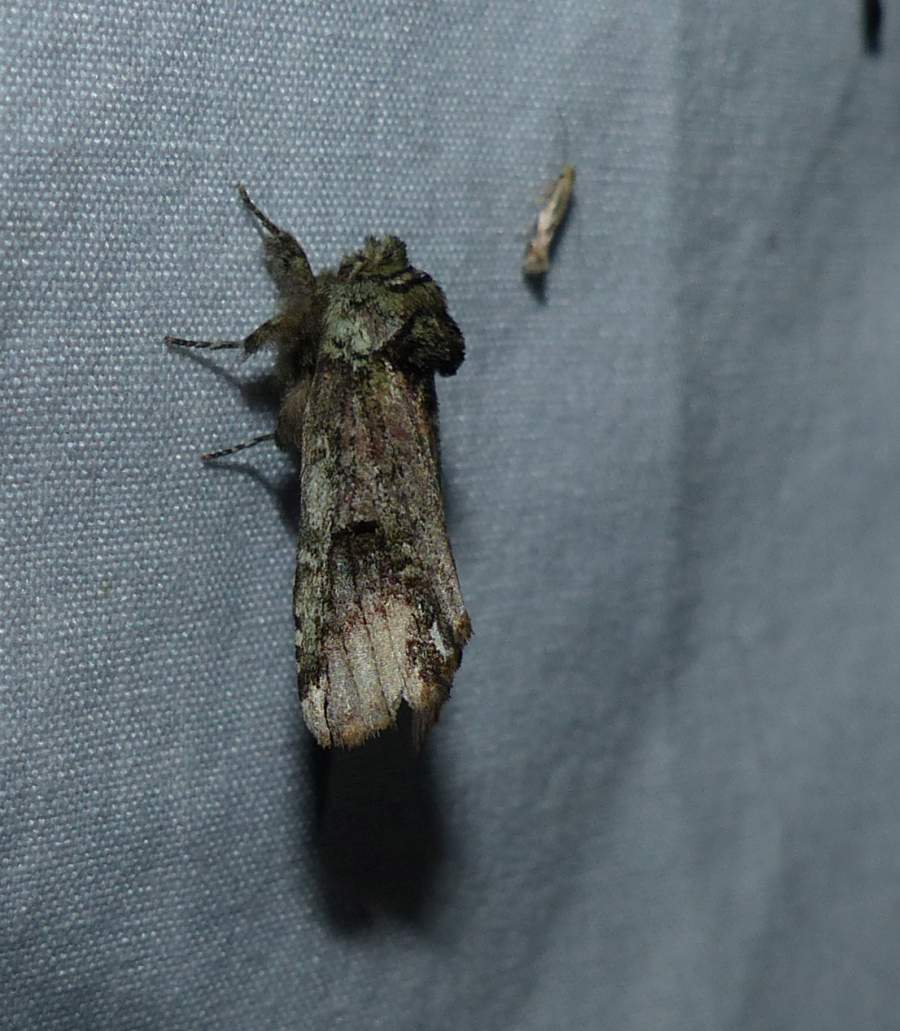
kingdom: Animalia
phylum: Arthropoda
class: Insecta
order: Lepidoptera
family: Notodontidae
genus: Schizura
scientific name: Schizura
